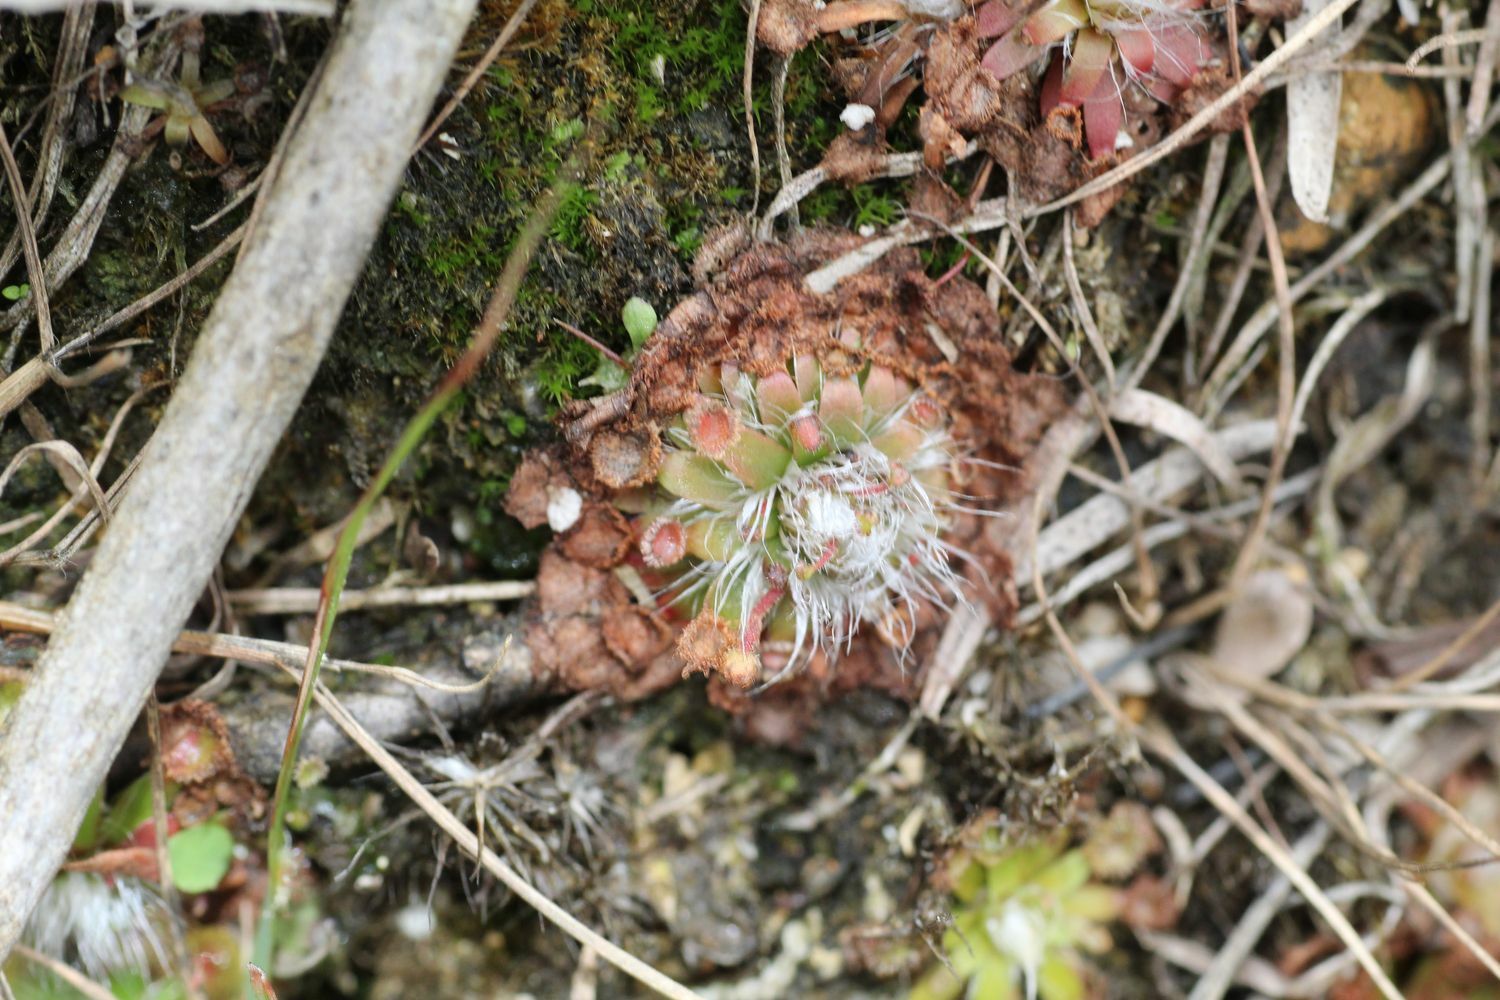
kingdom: Plantae
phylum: Tracheophyta
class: Magnoliopsida
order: Caryophyllales
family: Droseraceae
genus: Drosera
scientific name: Drosera pulchella
